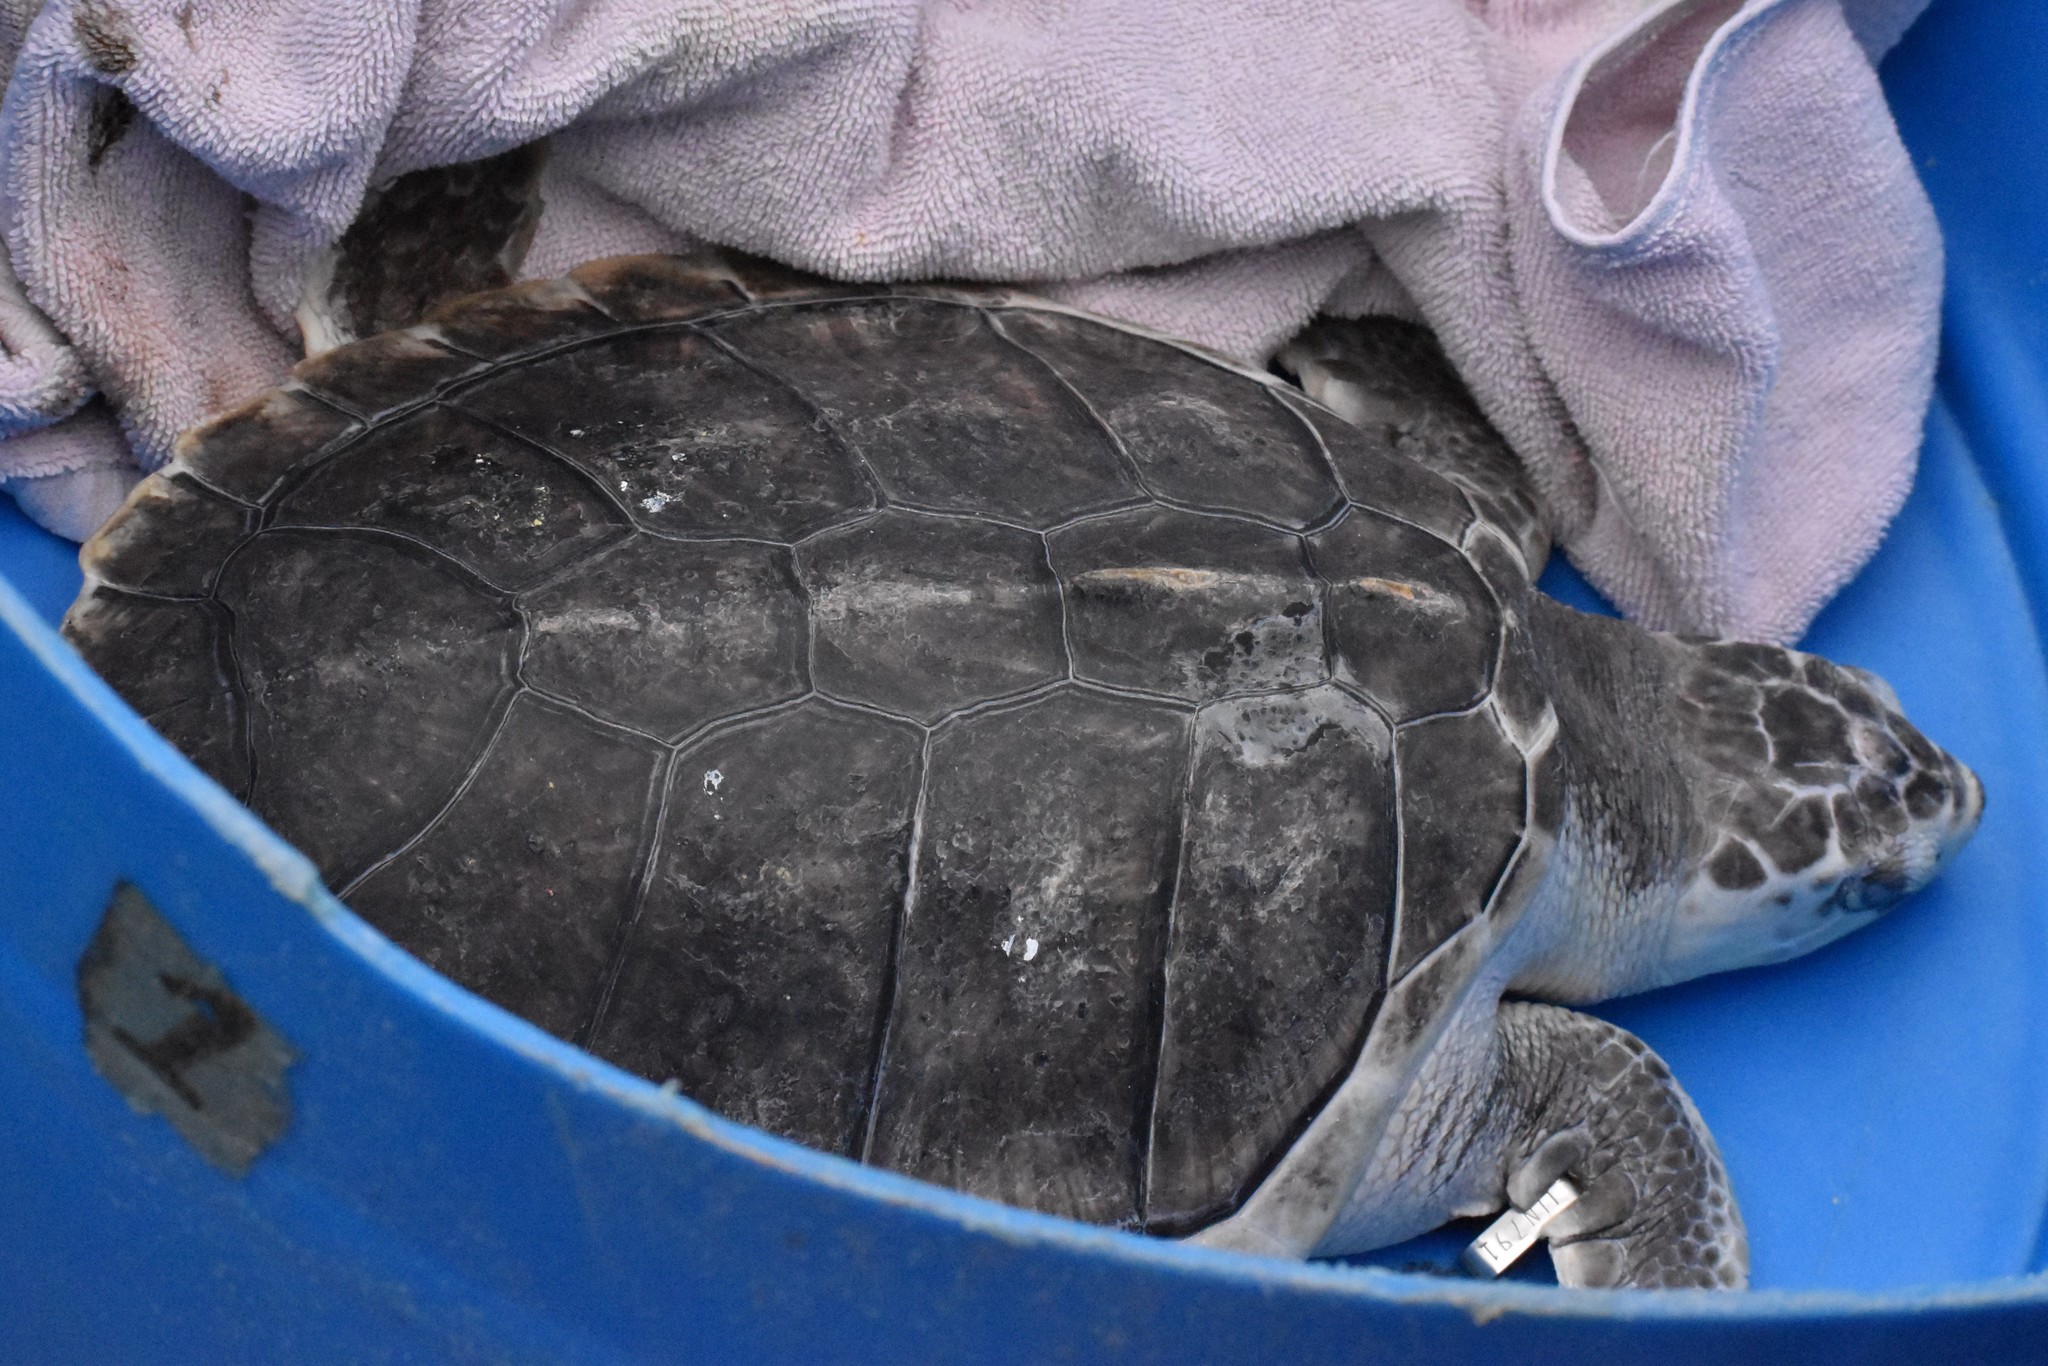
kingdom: Animalia
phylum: Chordata
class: Testudines
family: Cheloniidae
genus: Lepidochelys
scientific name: Lepidochelys kempii
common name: Kemp's ridley turtle
